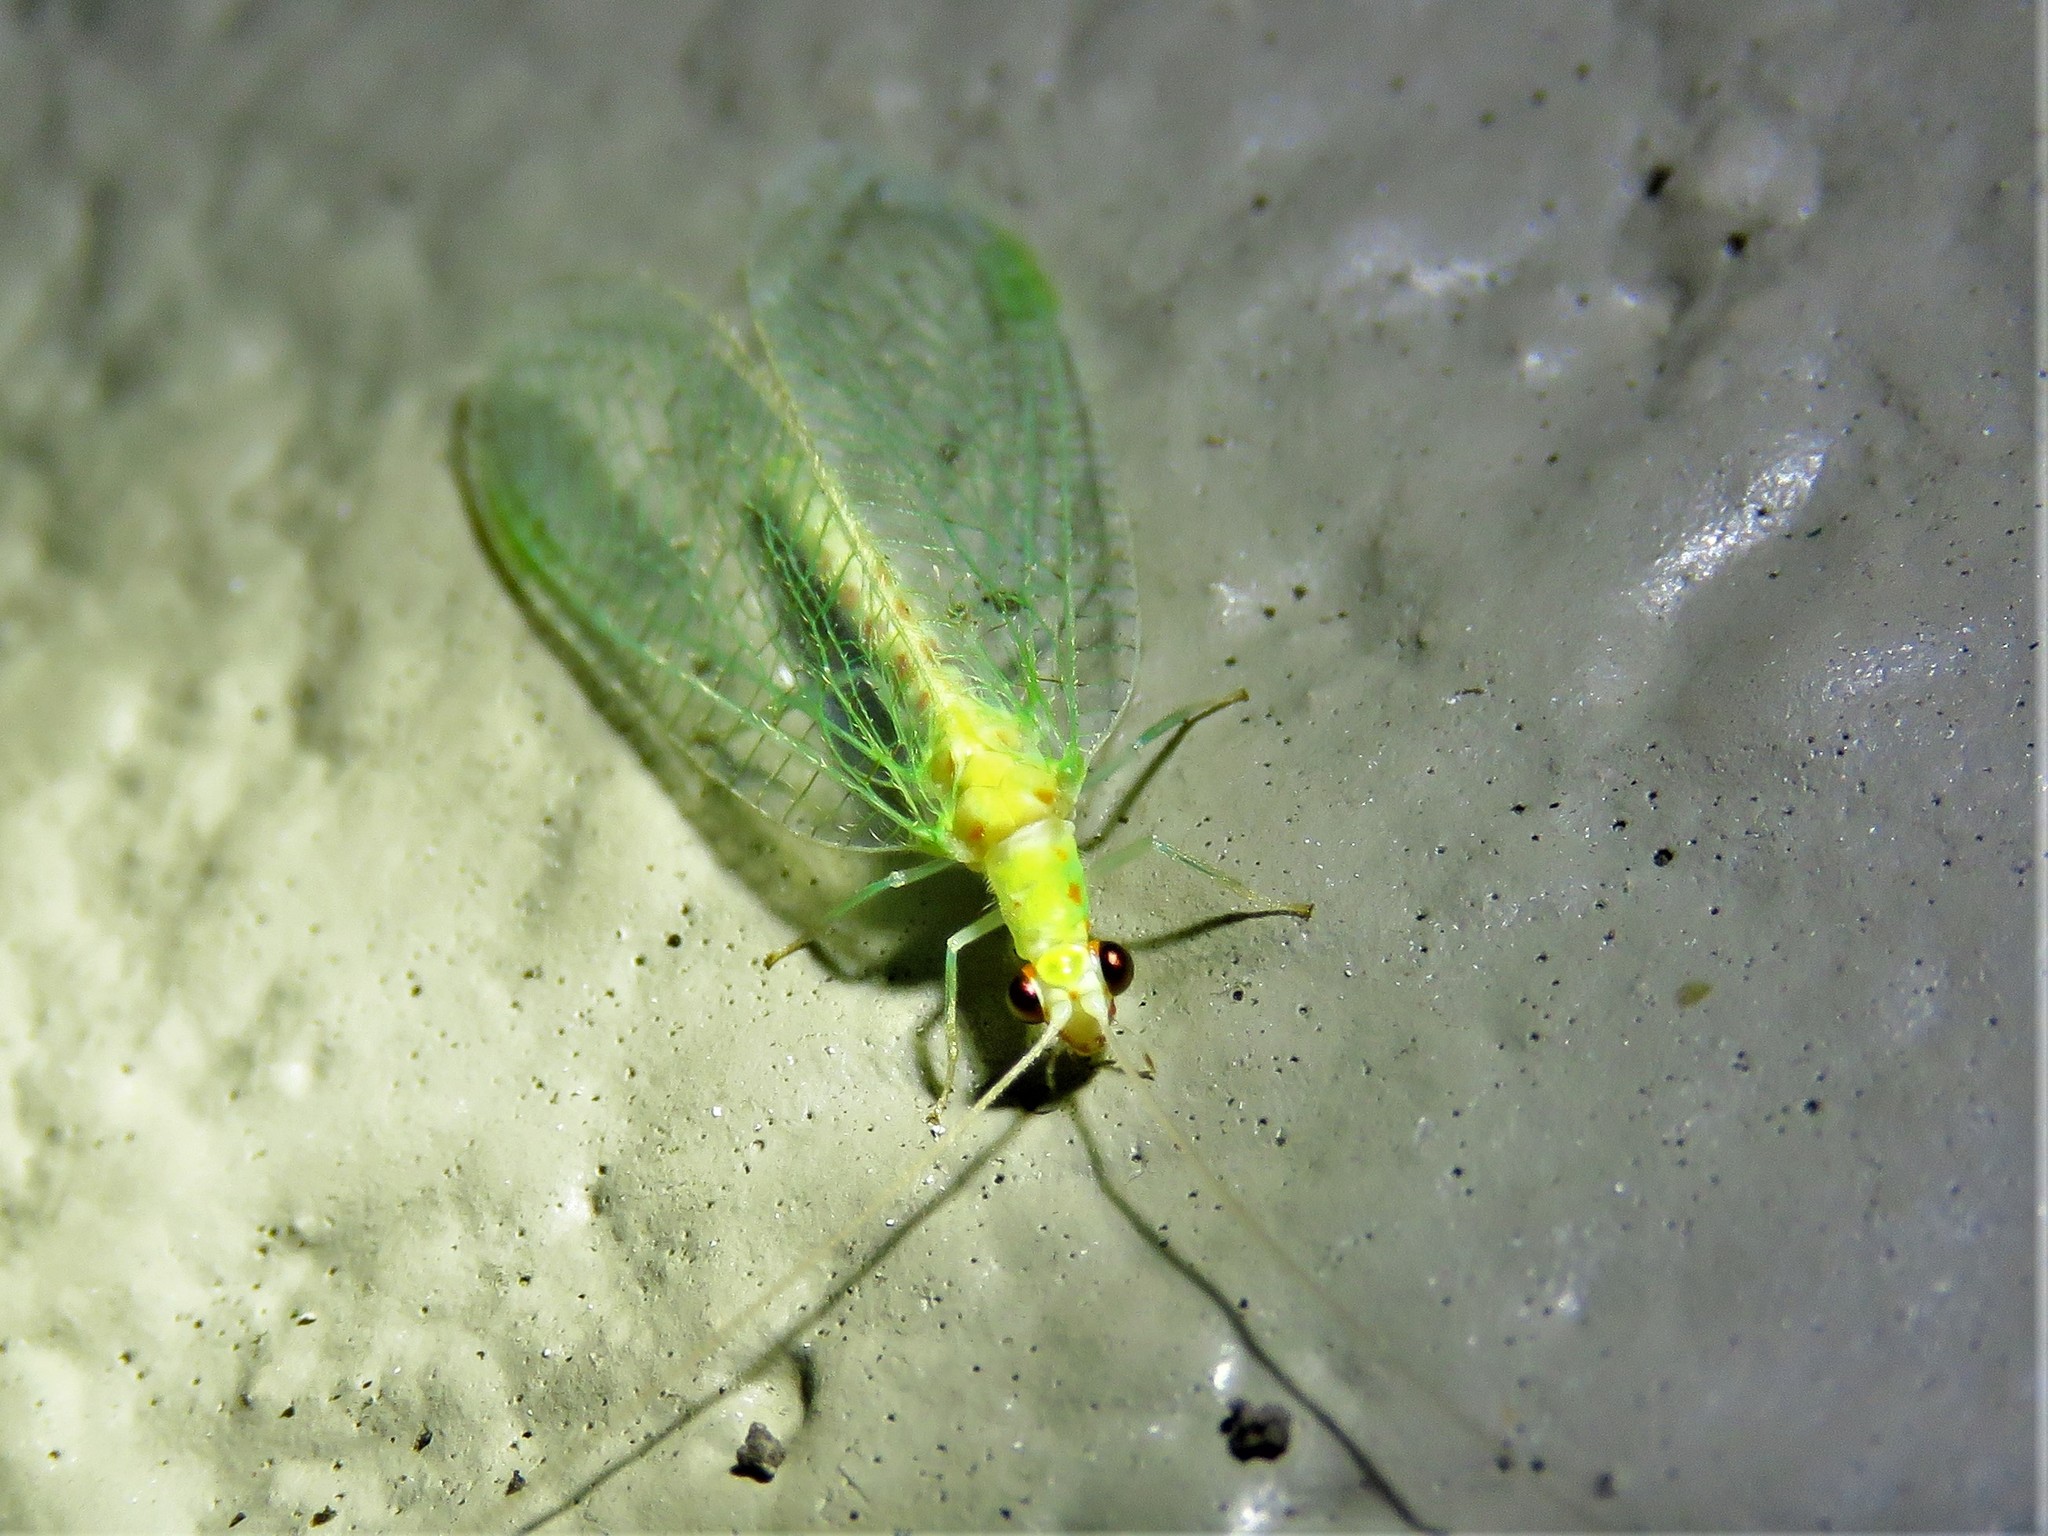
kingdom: Animalia
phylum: Arthropoda
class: Insecta
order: Neuroptera
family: Chrysopidae
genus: Chrysopa
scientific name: Chrysopa quadripunctata
